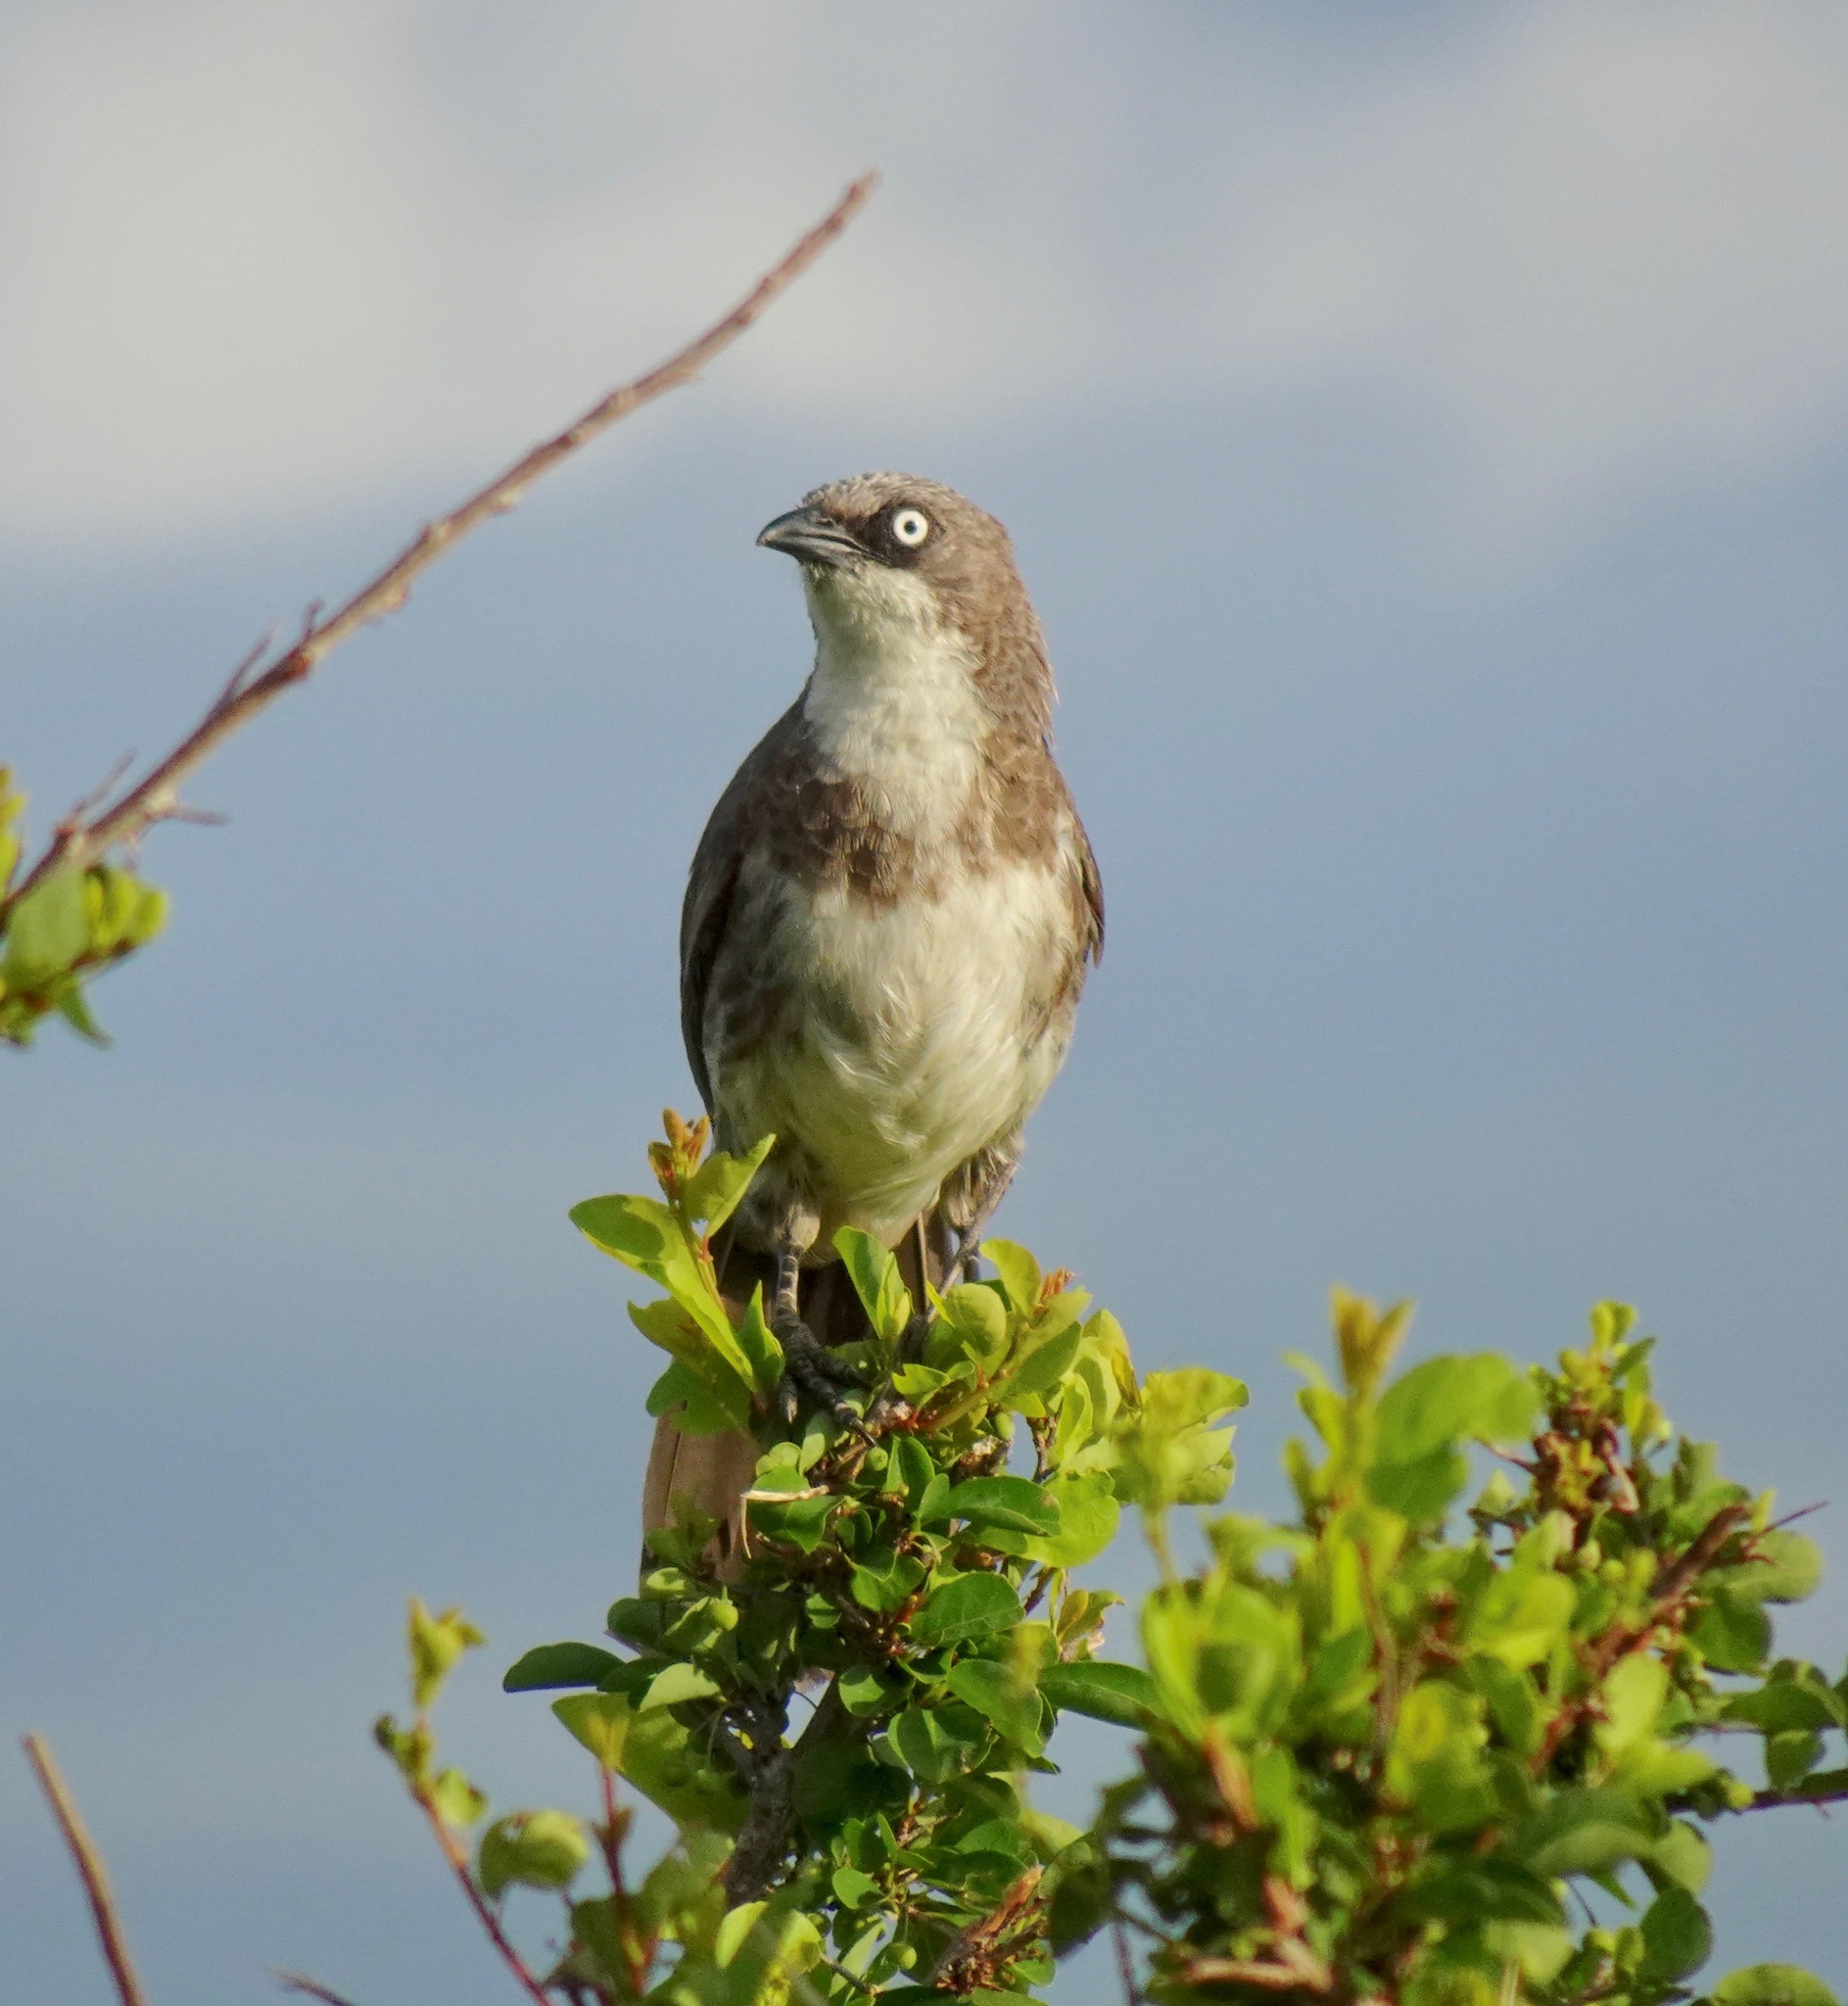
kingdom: Animalia
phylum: Chordata
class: Aves
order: Passeriformes
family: Leiothrichidae
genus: Turdoides
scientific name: Turdoides hypoleuca
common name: Northern pied-babbler
